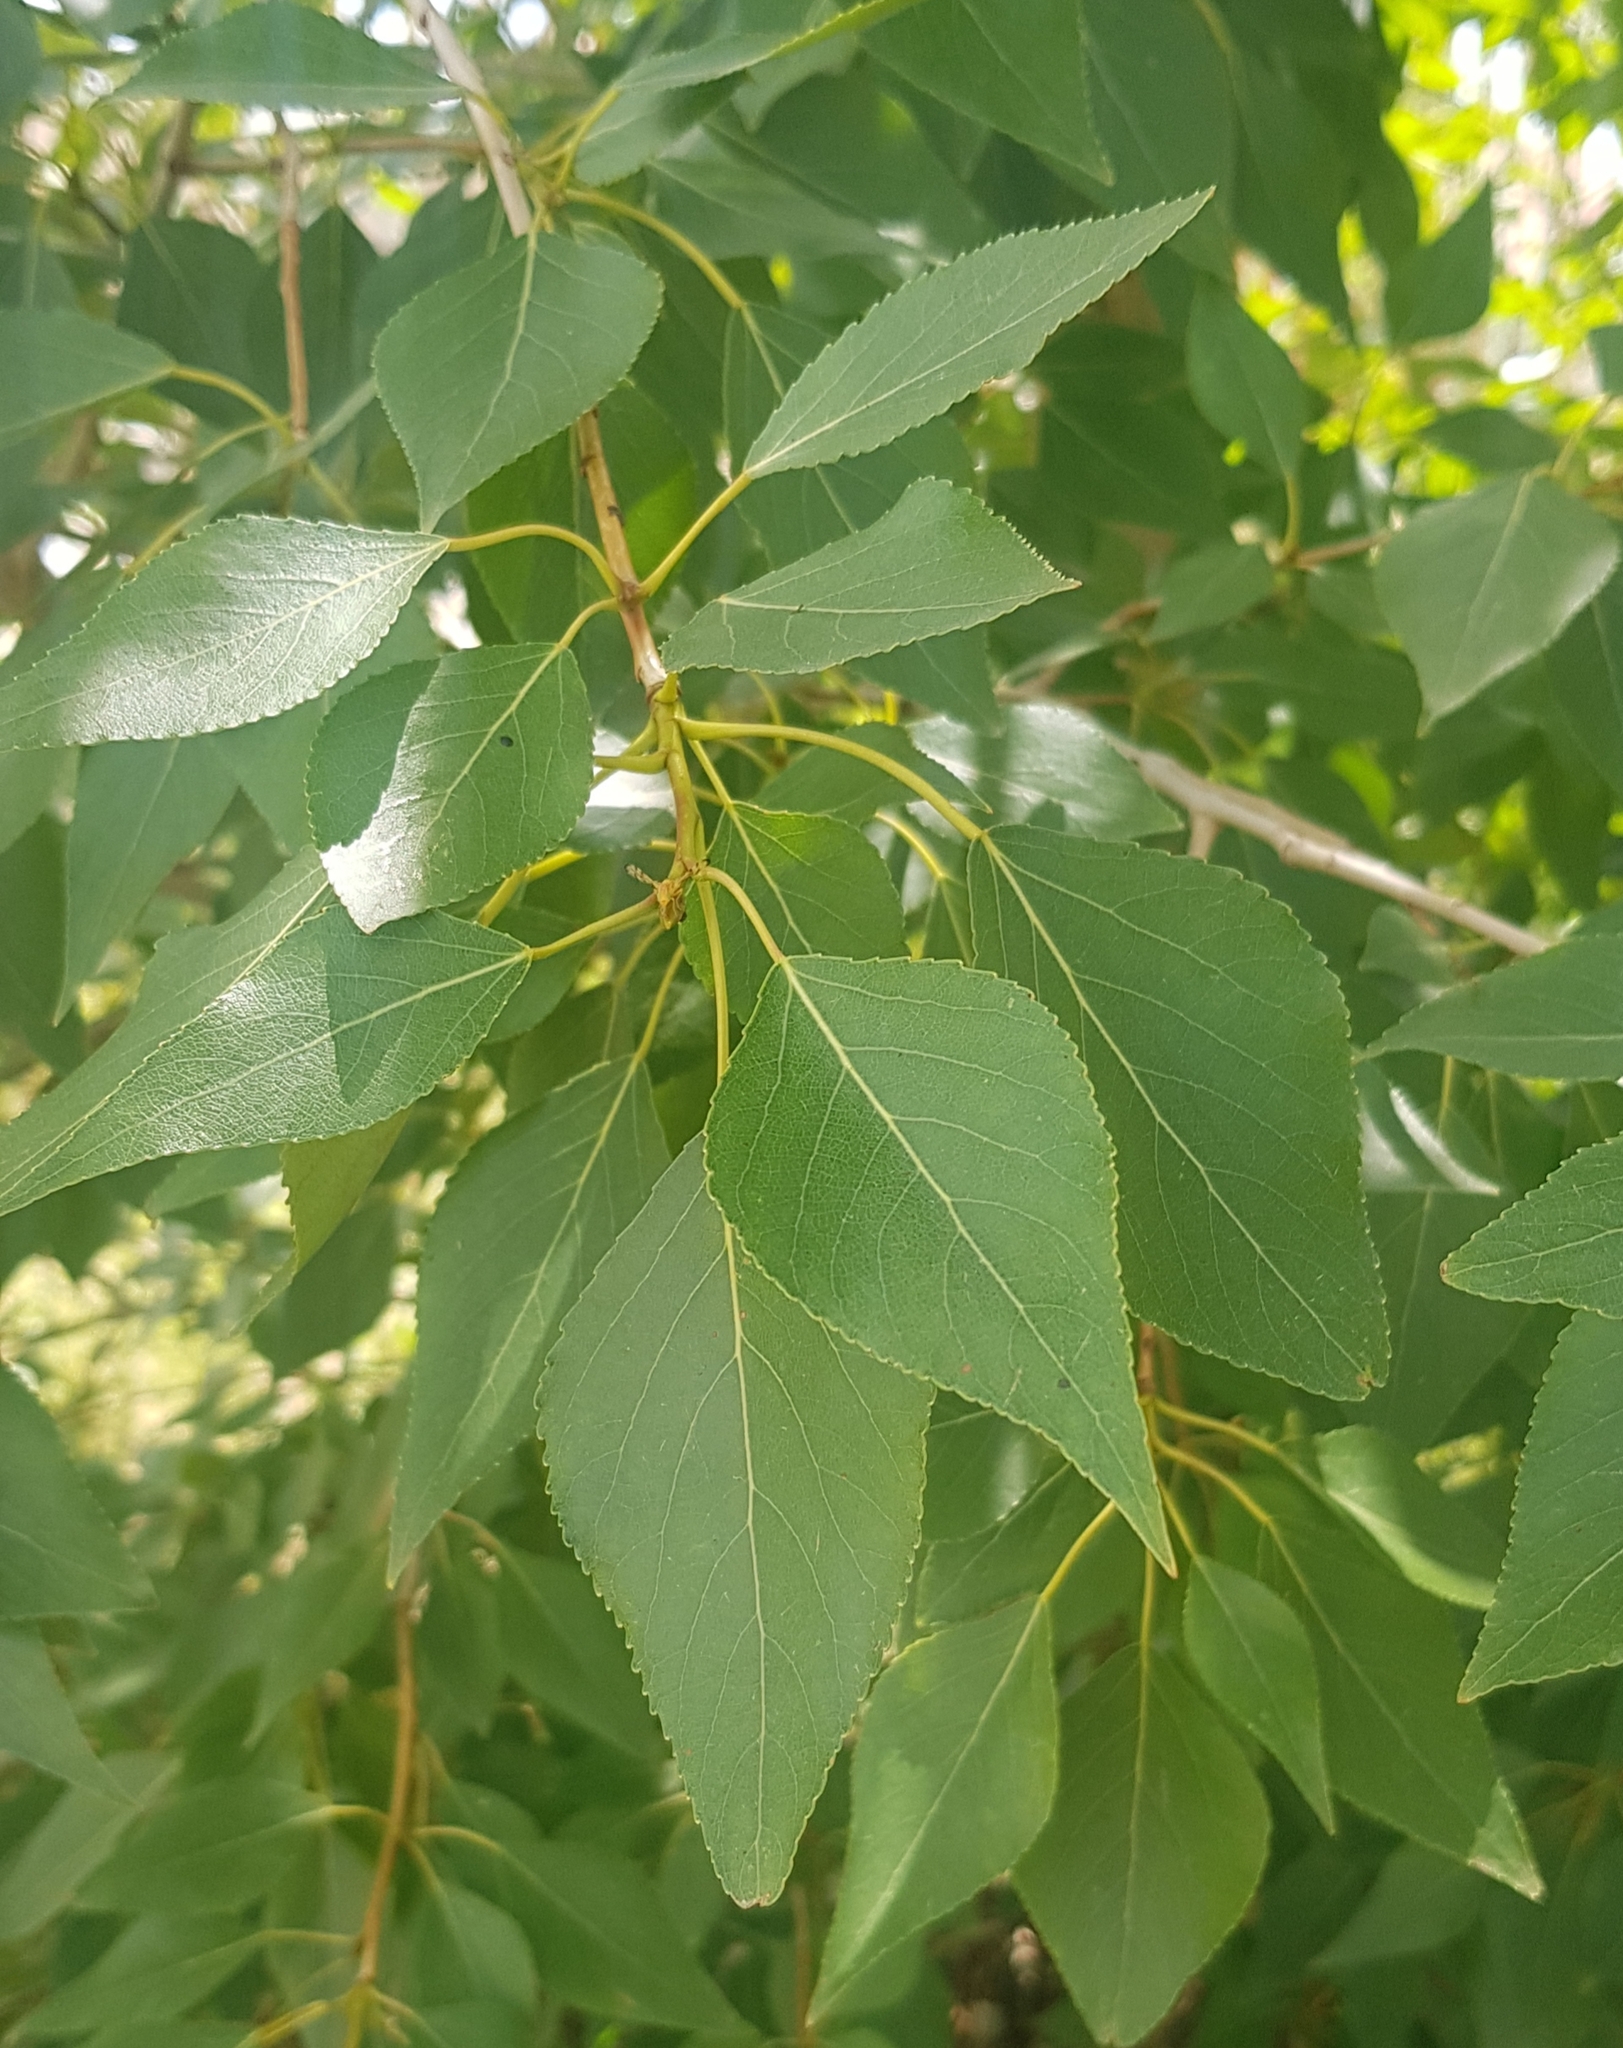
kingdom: Plantae
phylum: Tracheophyta
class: Magnoliopsida
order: Malpighiales
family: Salicaceae
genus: Populus
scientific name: Populus suaveolens
